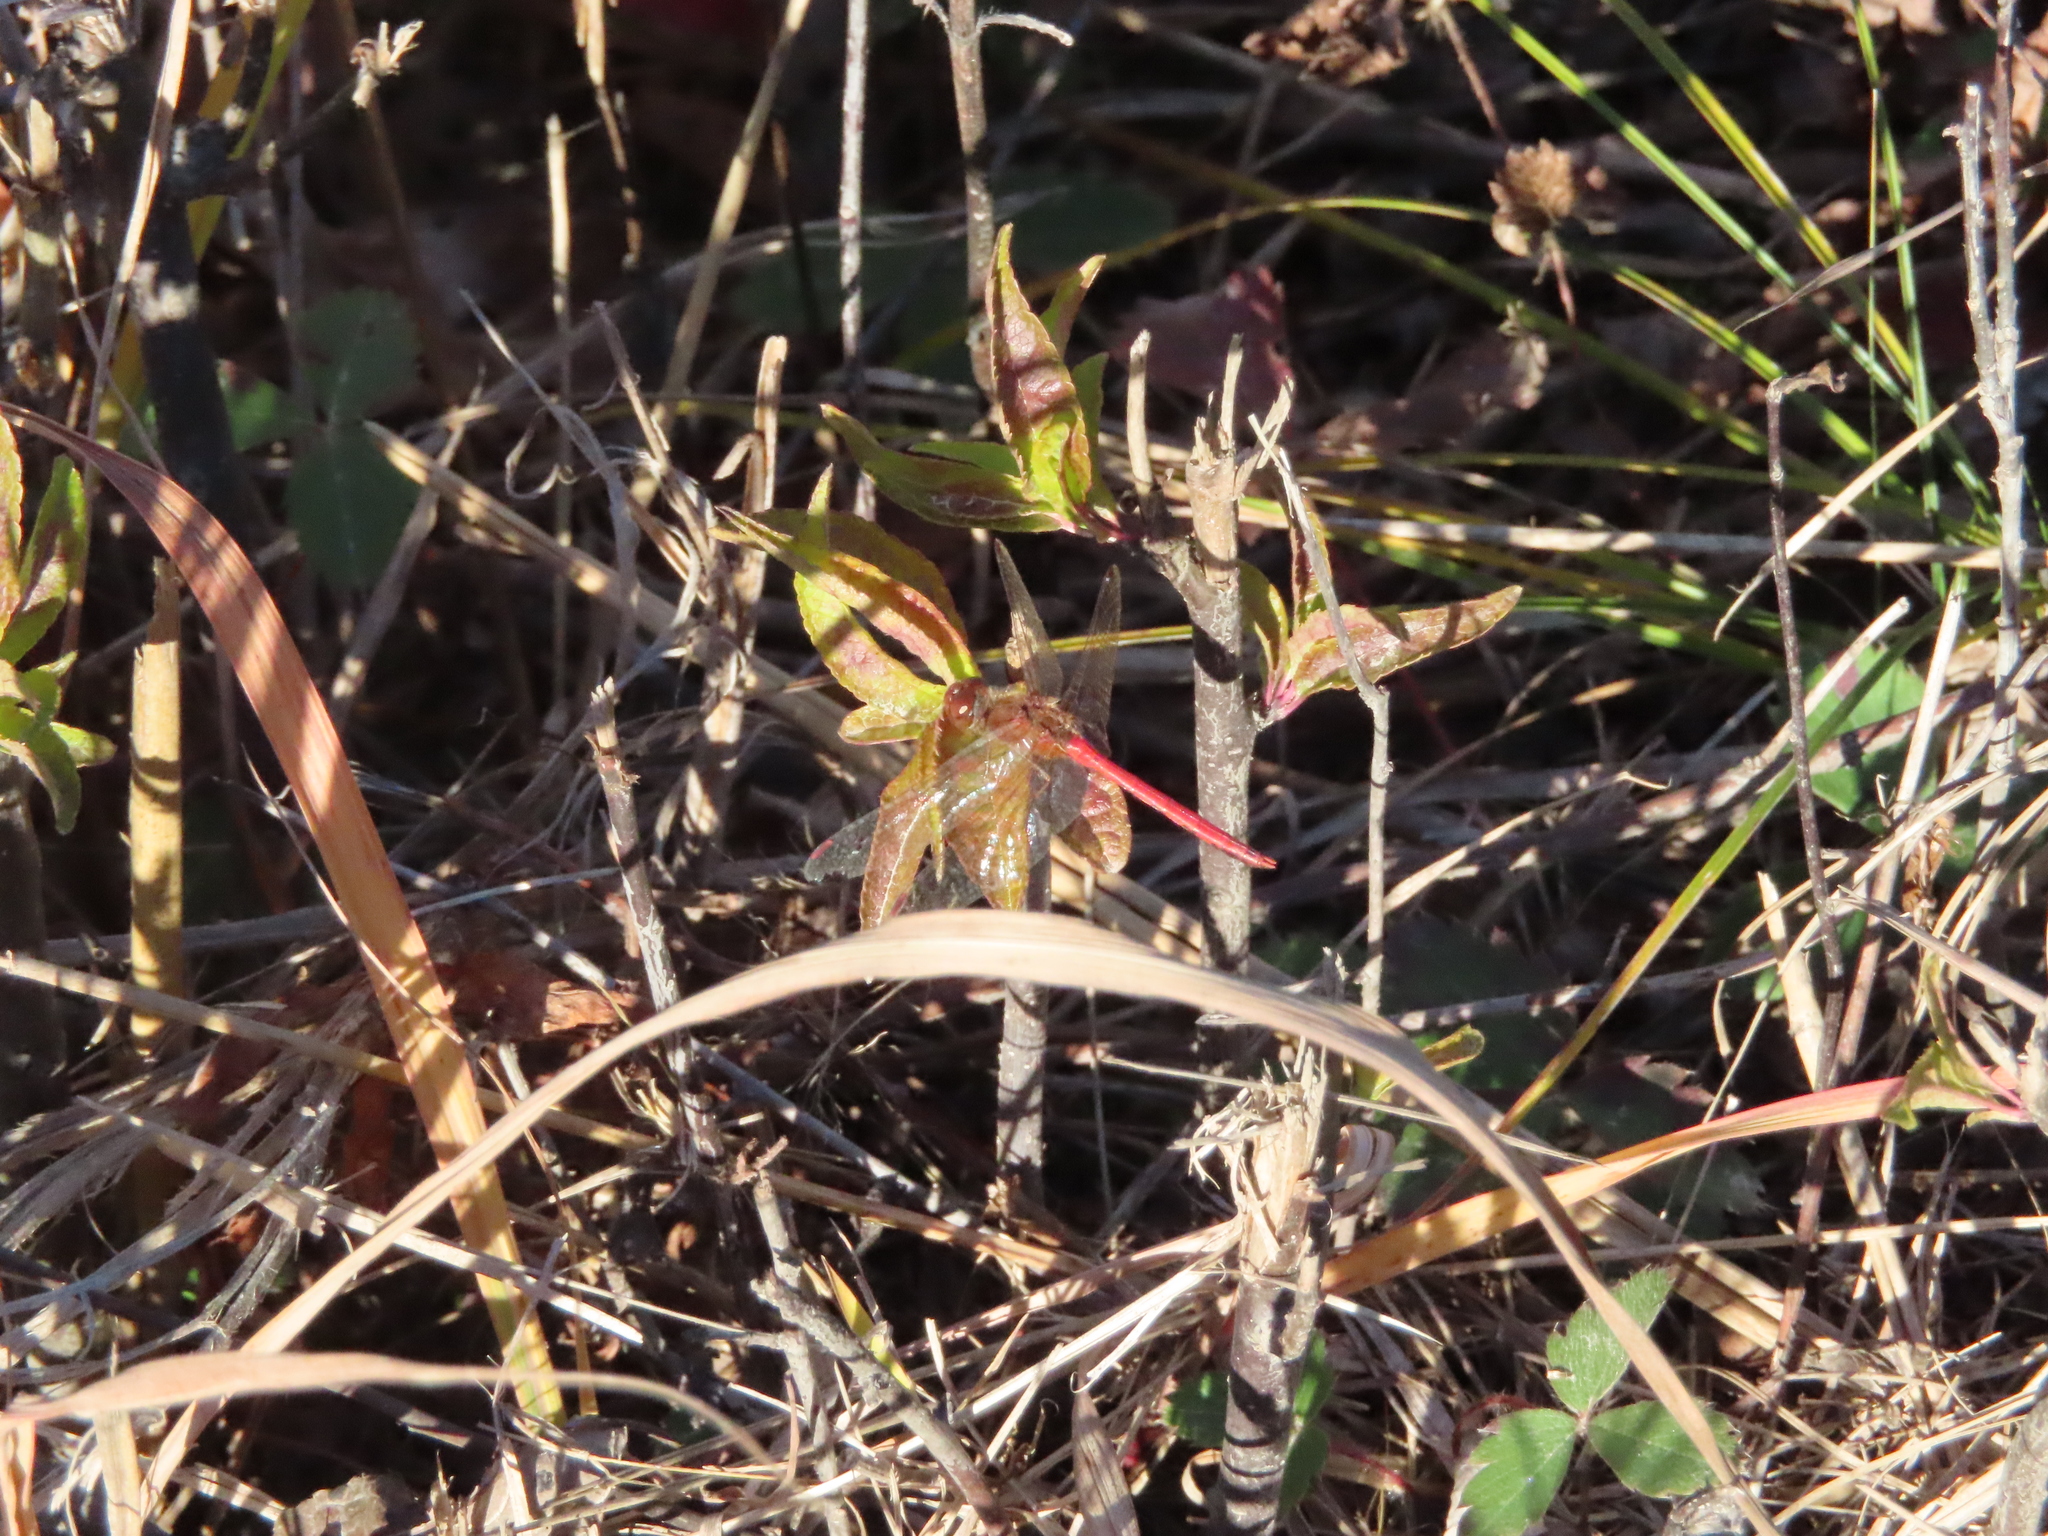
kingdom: Animalia
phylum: Arthropoda
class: Insecta
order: Odonata
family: Libellulidae
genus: Sympetrum
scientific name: Sympetrum vicinum
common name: Autumn meadowhawk
